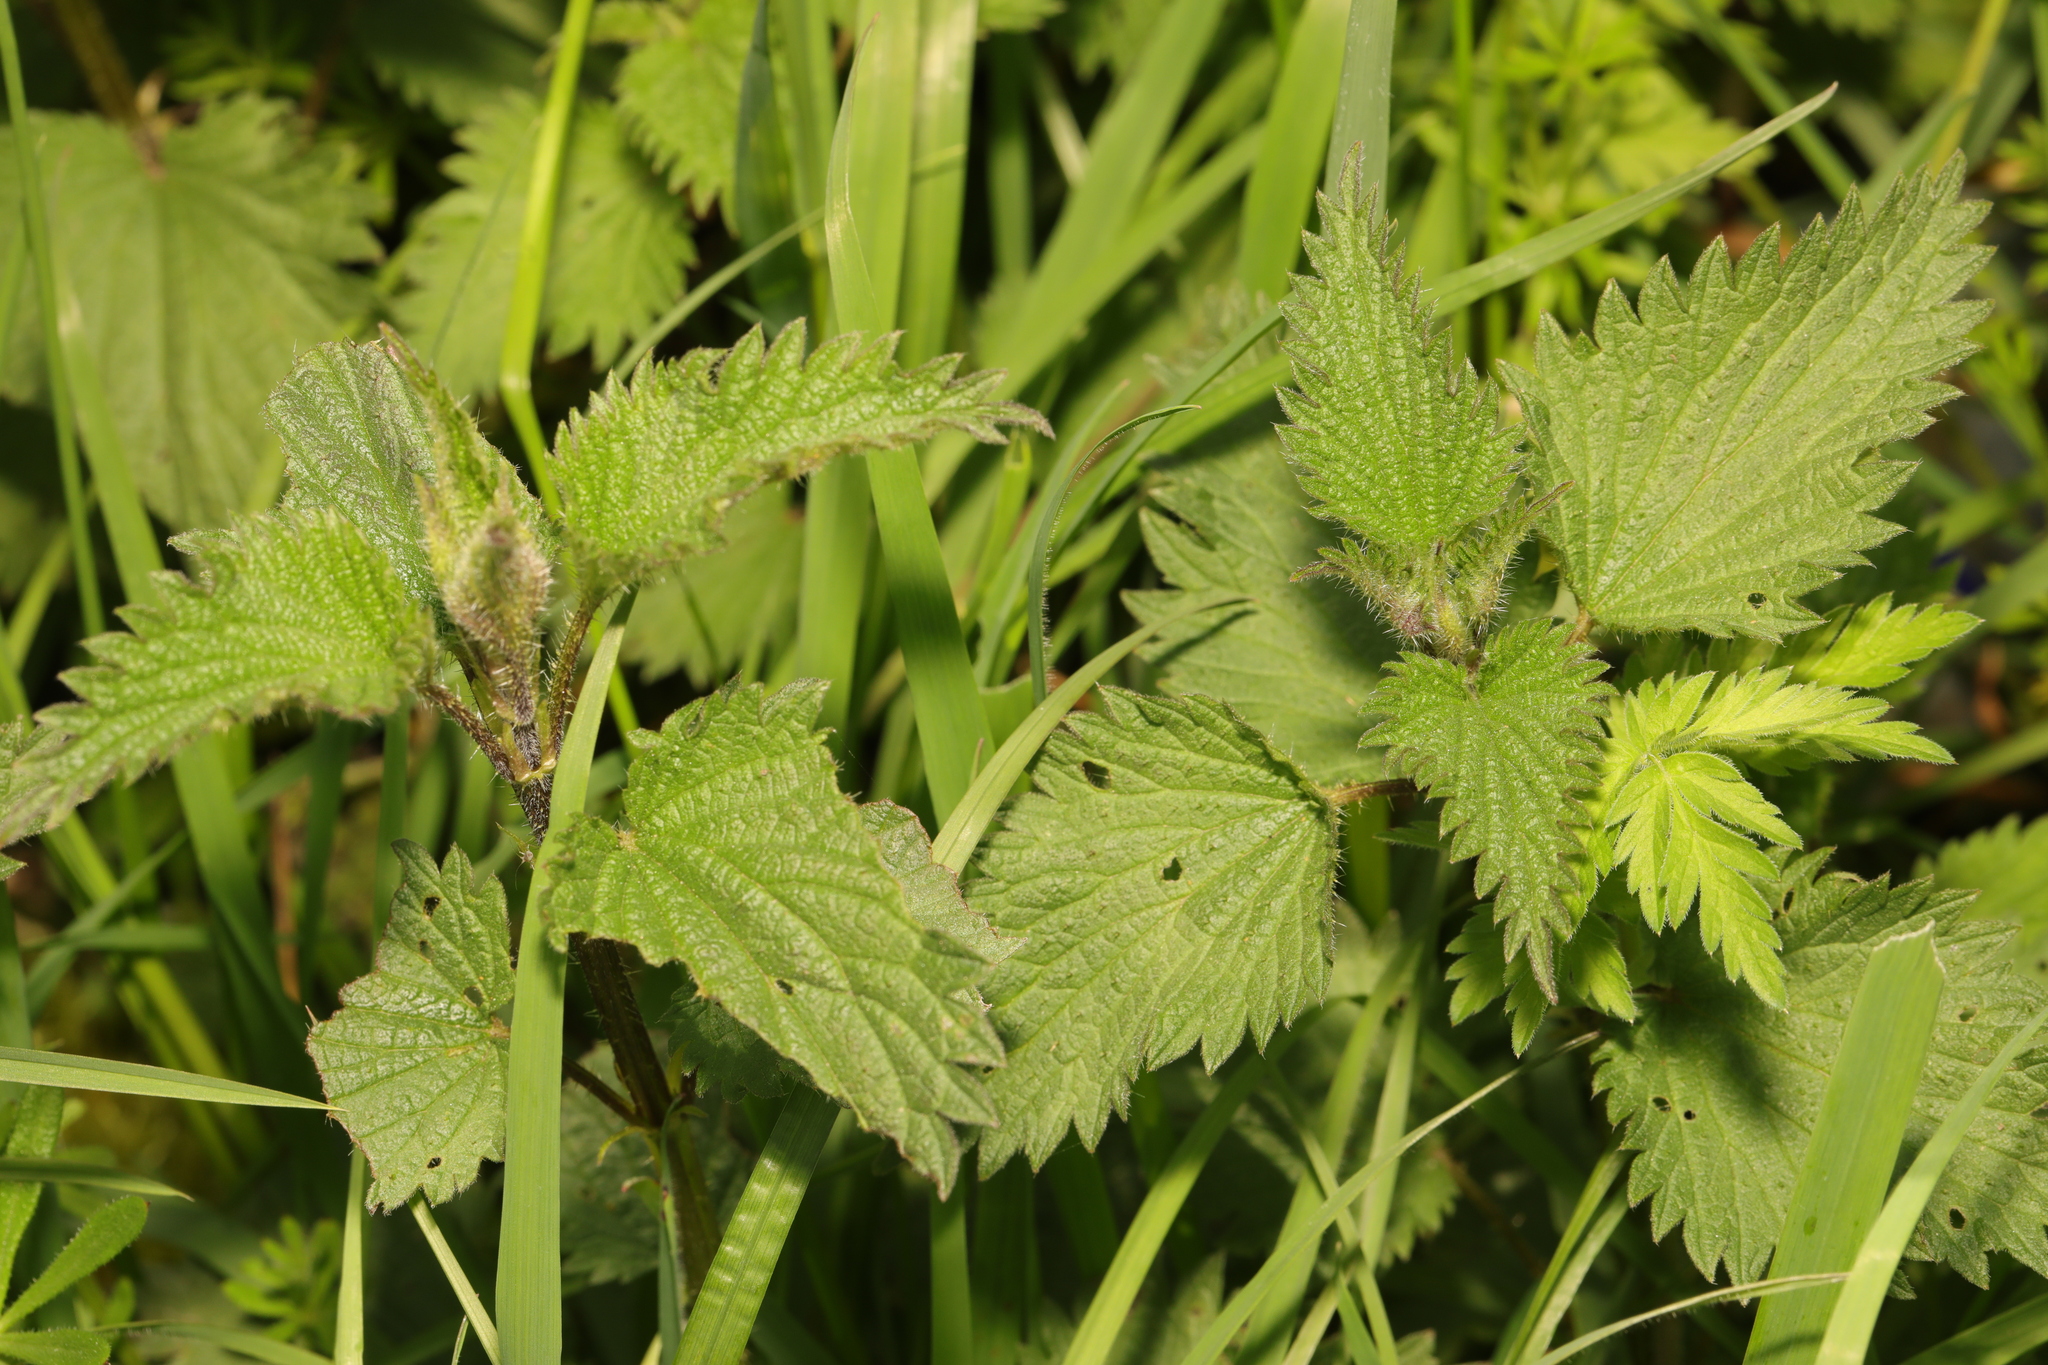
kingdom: Plantae
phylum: Tracheophyta
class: Magnoliopsida
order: Rosales
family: Urticaceae
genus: Urtica
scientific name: Urtica dioica
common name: Common nettle
